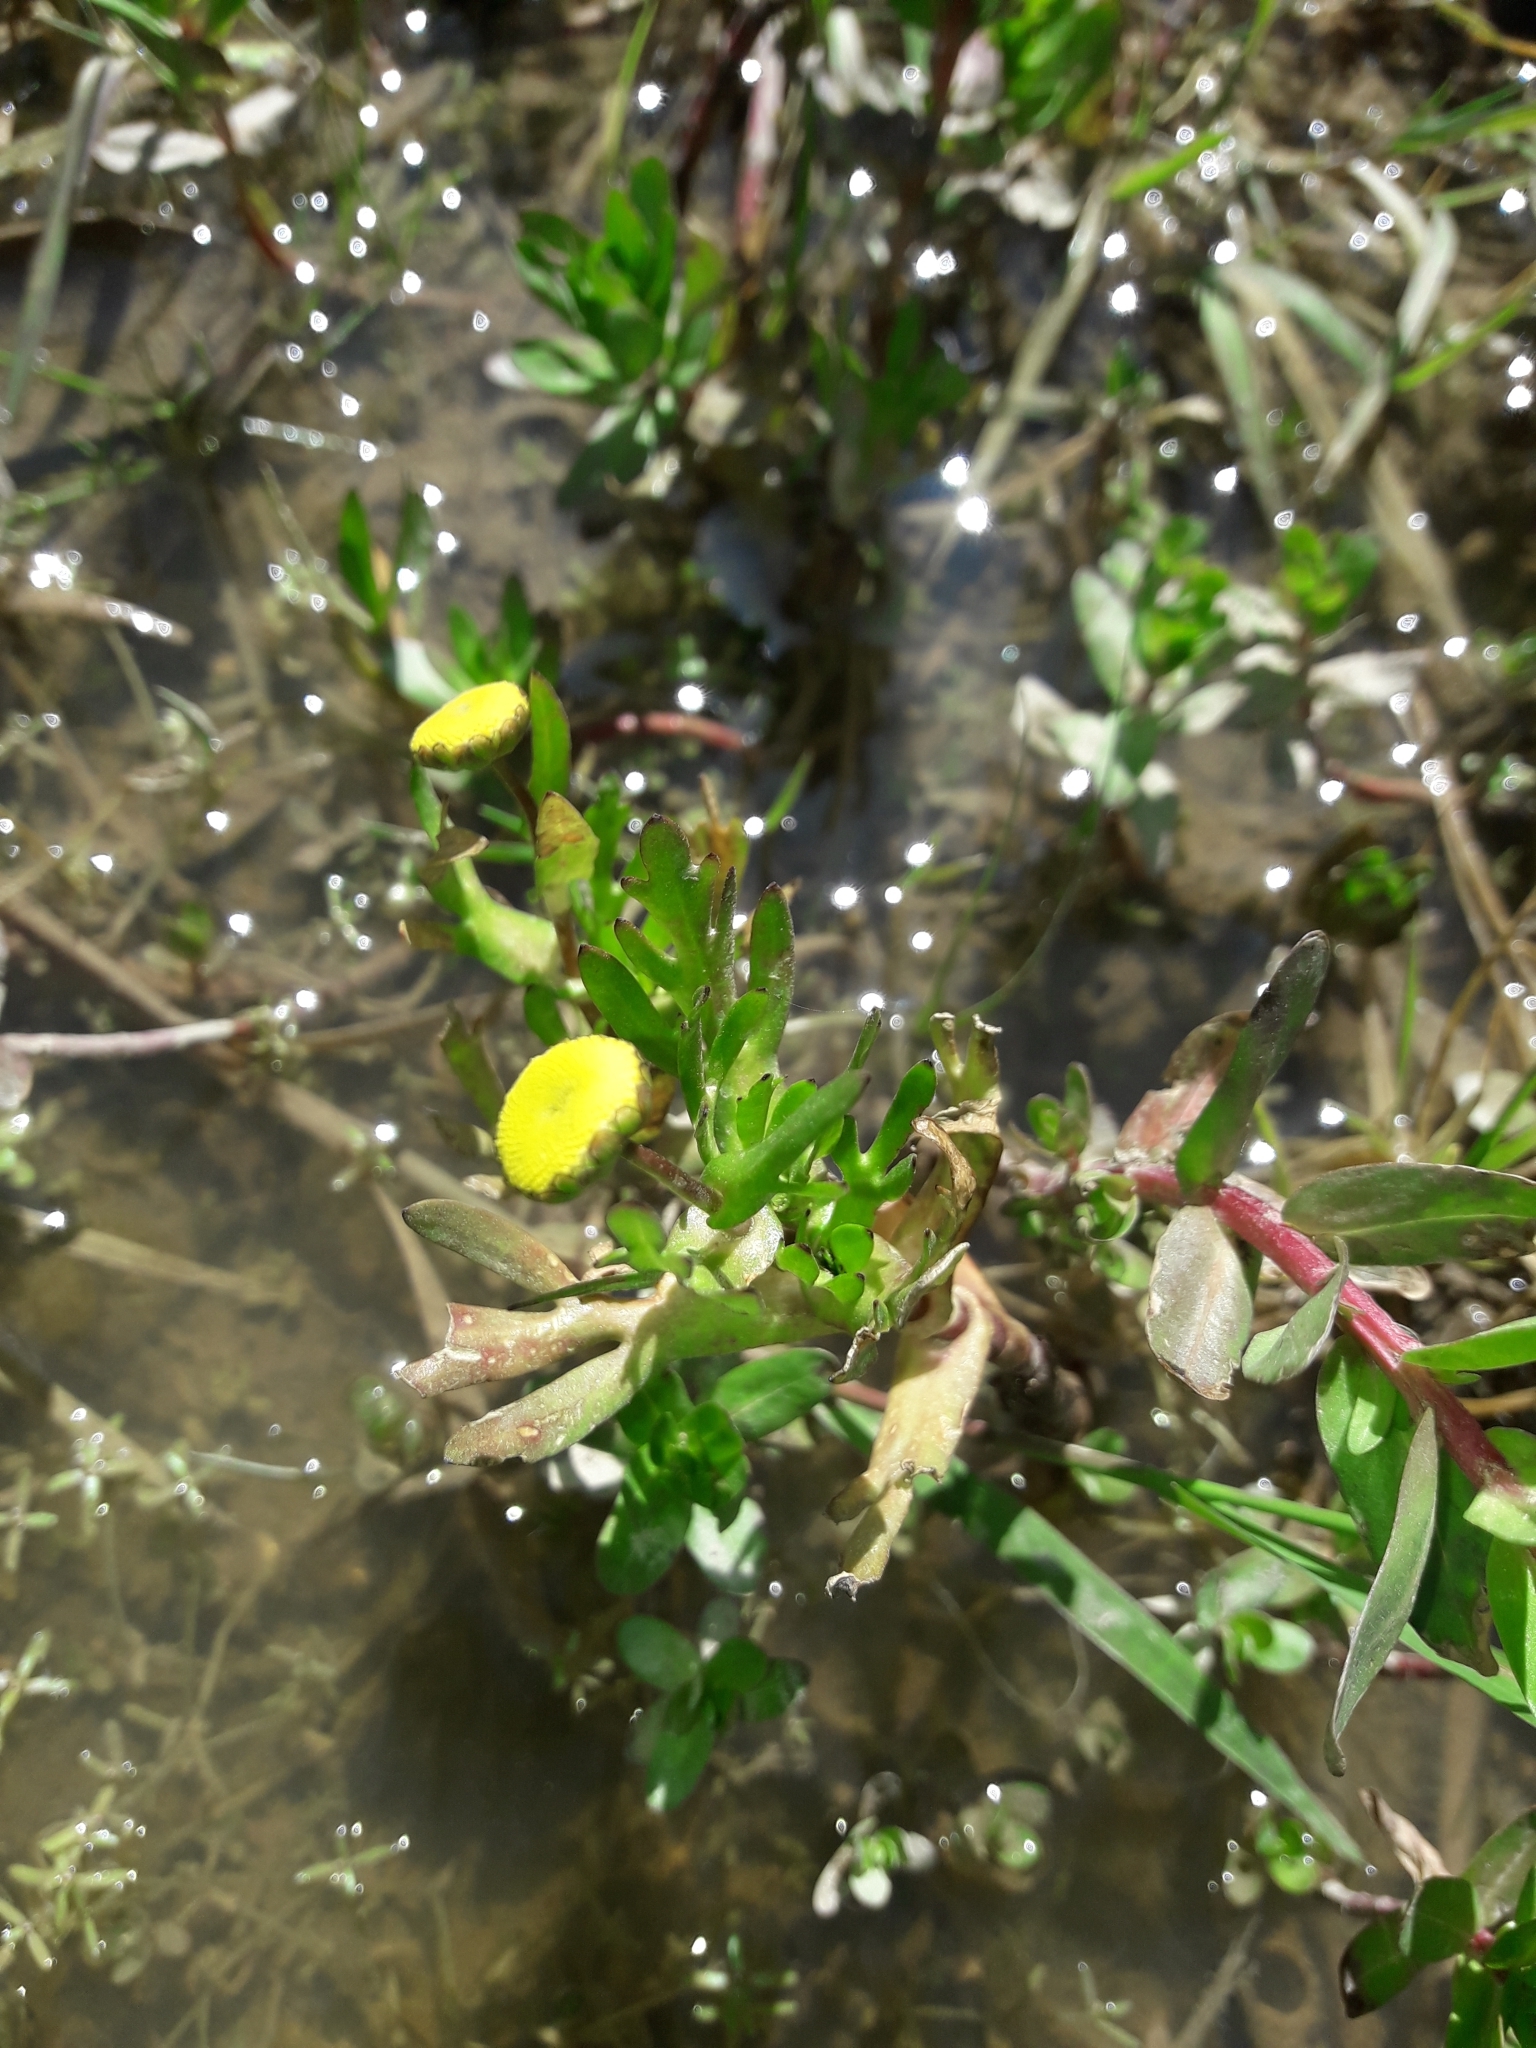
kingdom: Plantae
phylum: Tracheophyta
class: Magnoliopsida
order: Asterales
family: Asteraceae
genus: Cotula
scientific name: Cotula coronopifolia
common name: Buttonweed
